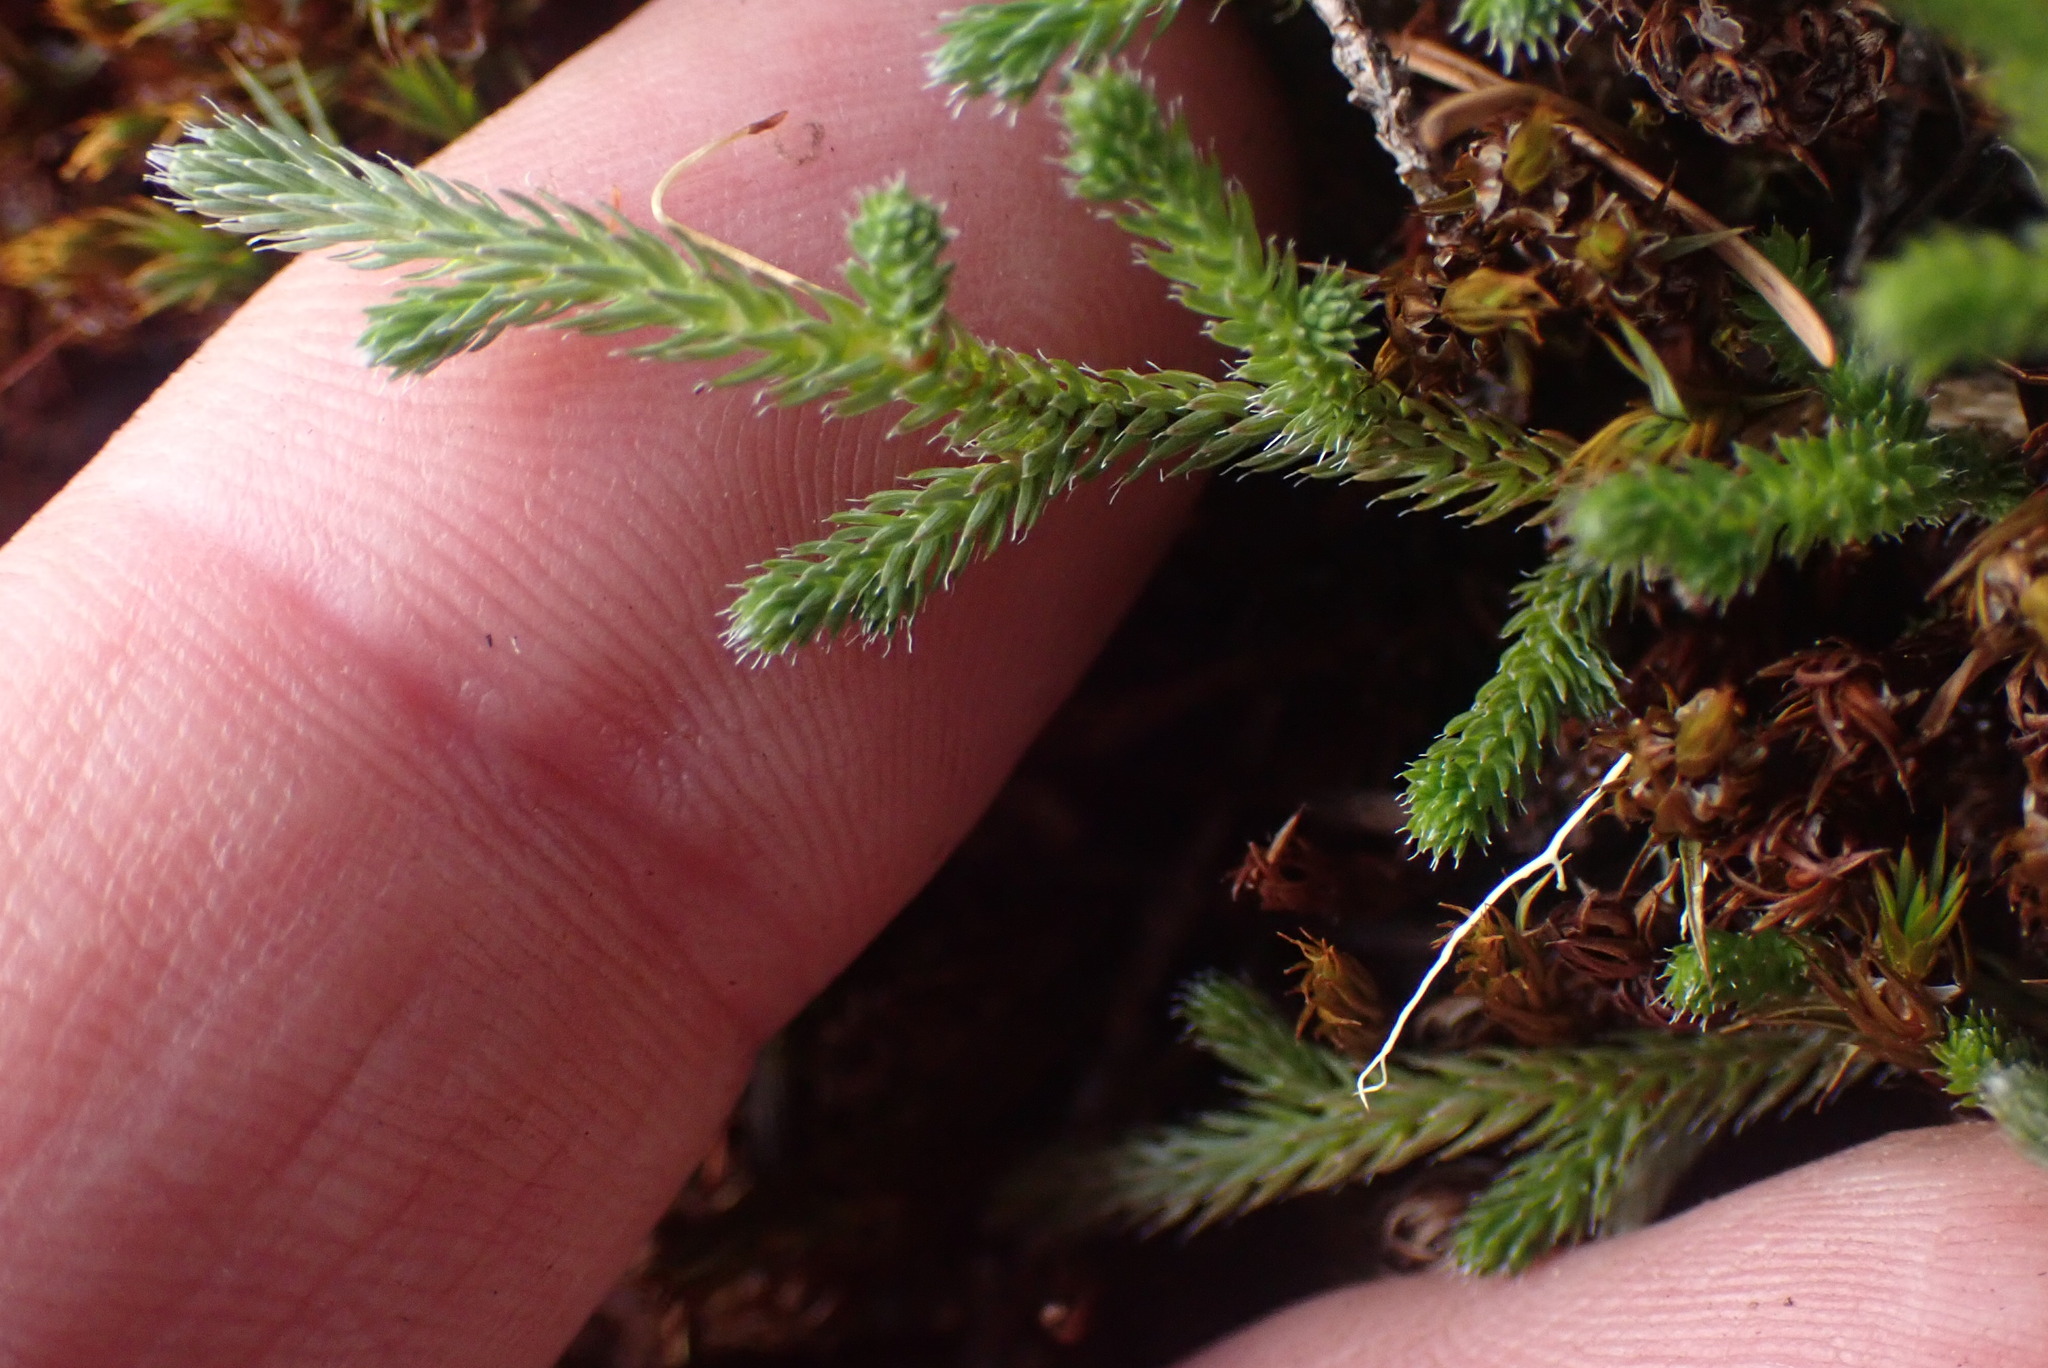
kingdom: Plantae
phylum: Tracheophyta
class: Lycopodiopsida
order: Selaginellales
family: Selaginellaceae
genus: Selaginella
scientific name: Selaginella wallacei
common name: Wallace's selaginella
